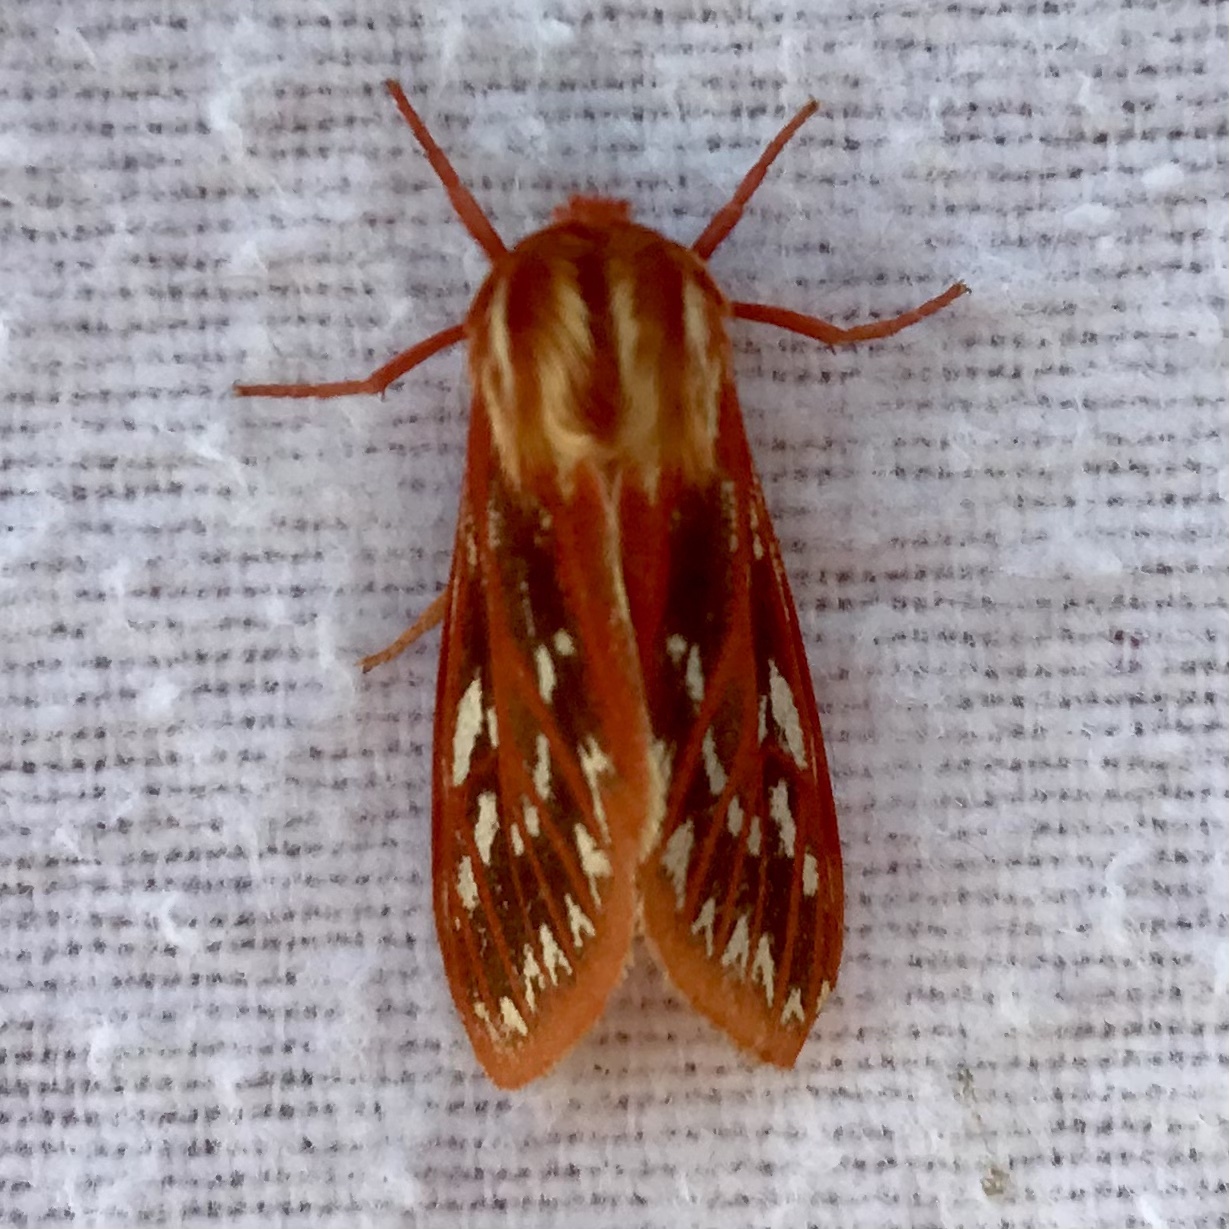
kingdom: Animalia
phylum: Arthropoda
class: Insecta
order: Lepidoptera
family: Erebidae
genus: Lophocampa
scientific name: Lophocampa roseata
